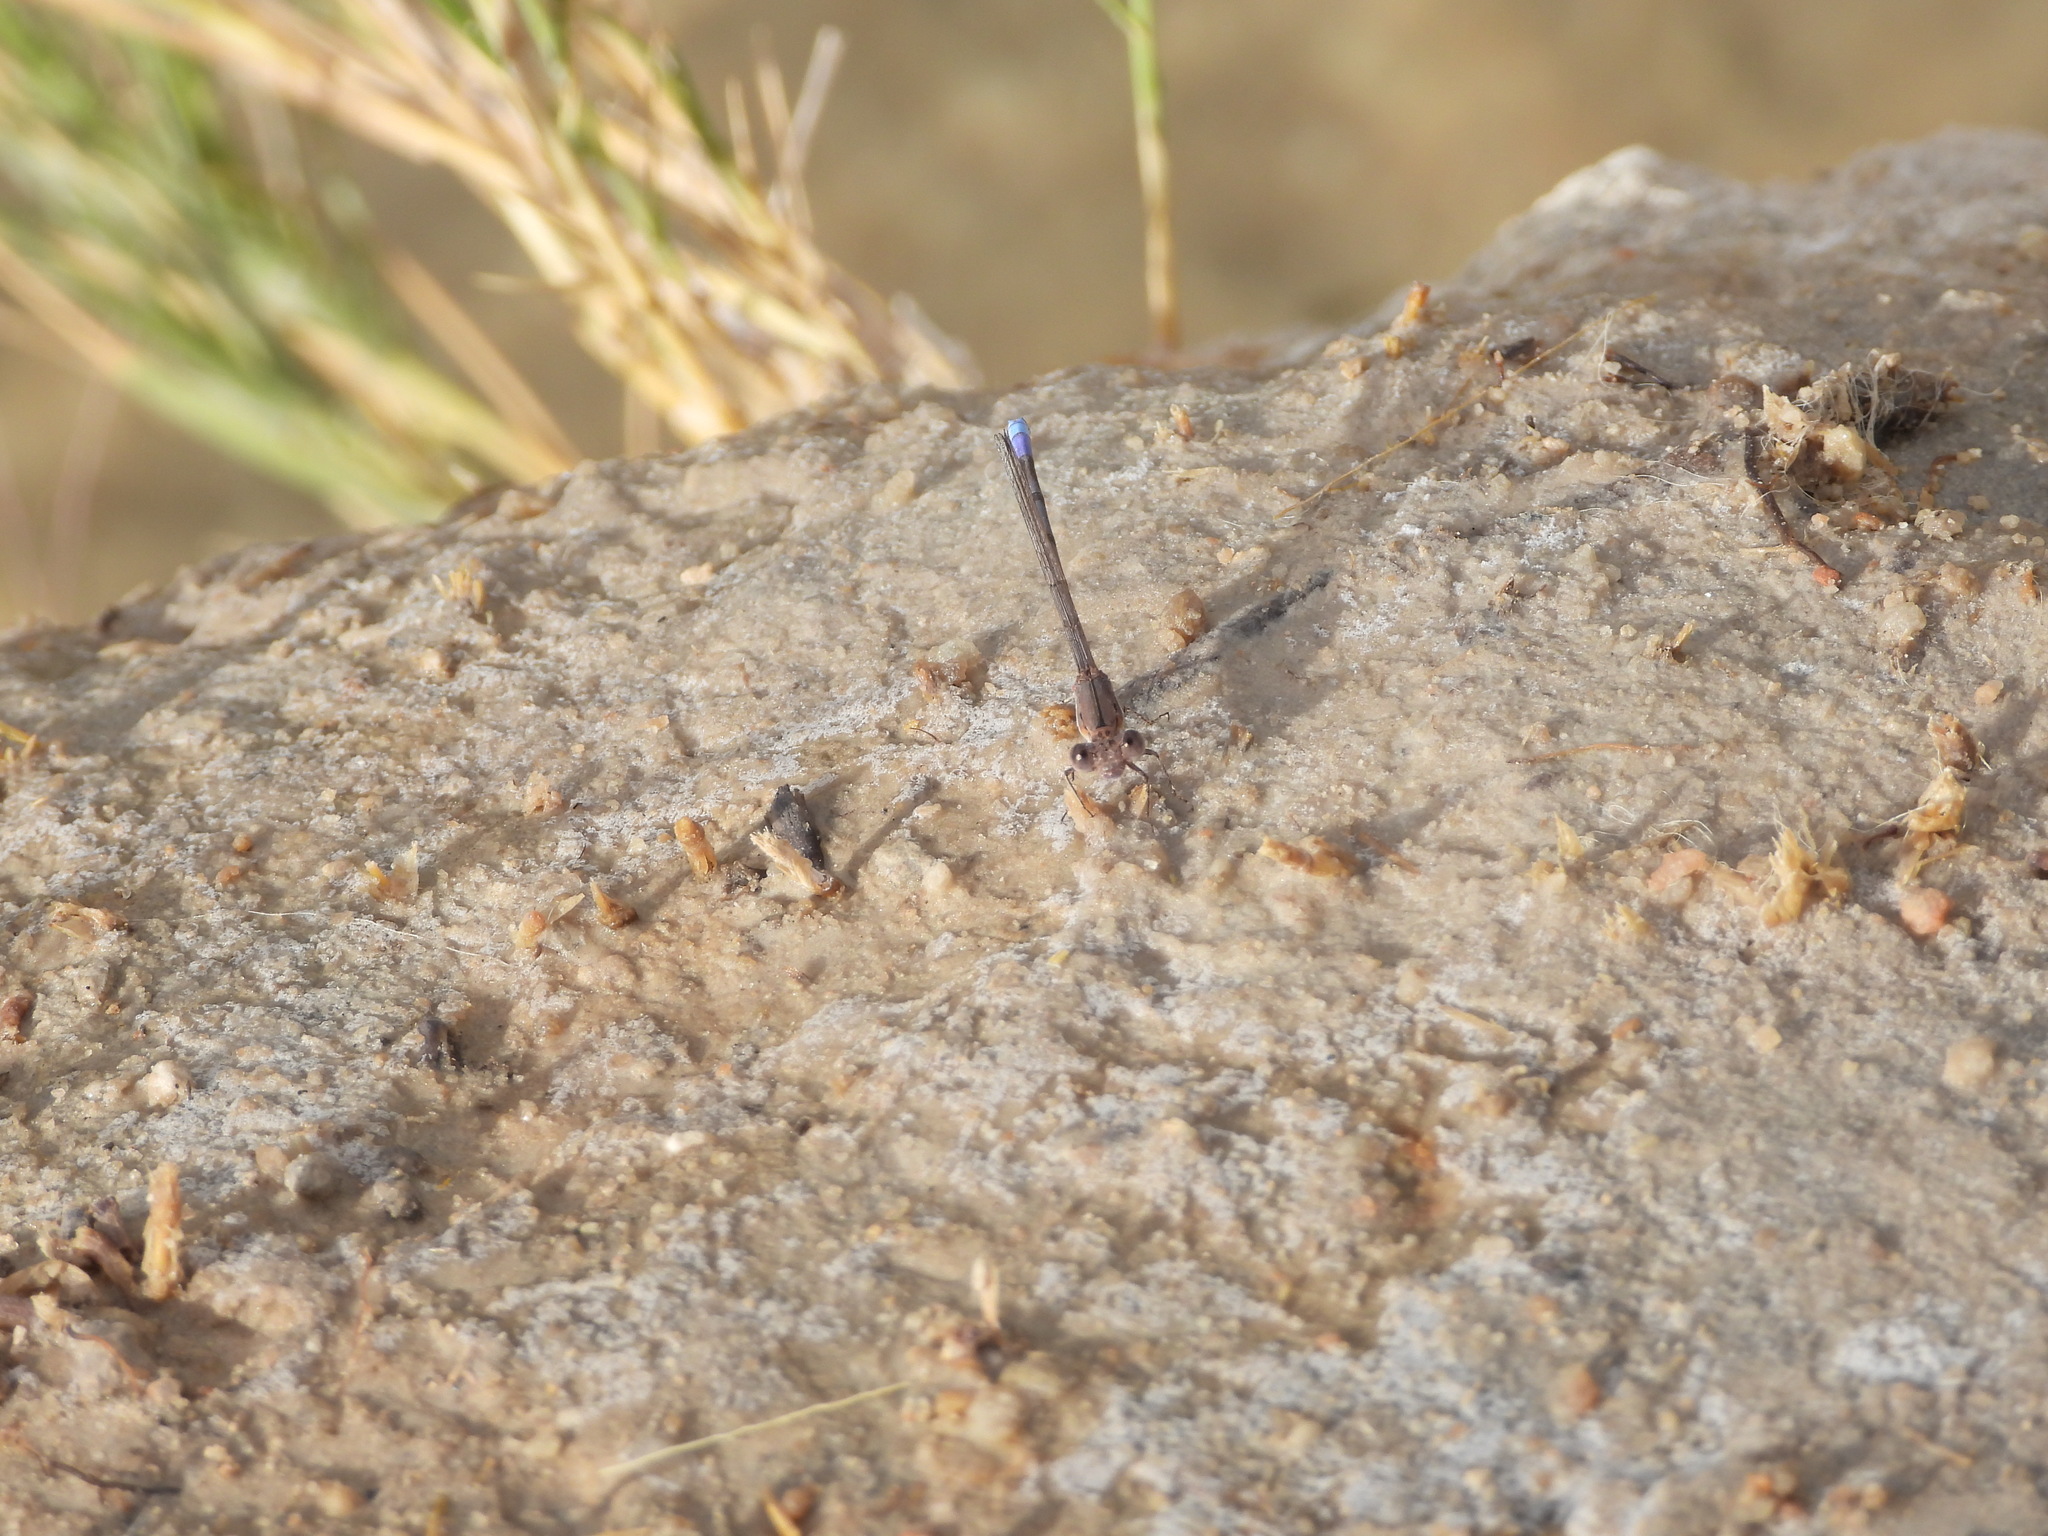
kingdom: Animalia
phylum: Arthropoda
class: Insecta
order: Odonata
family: Coenagrionidae
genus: Argia
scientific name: Argia fumipennis
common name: Variable dancer
